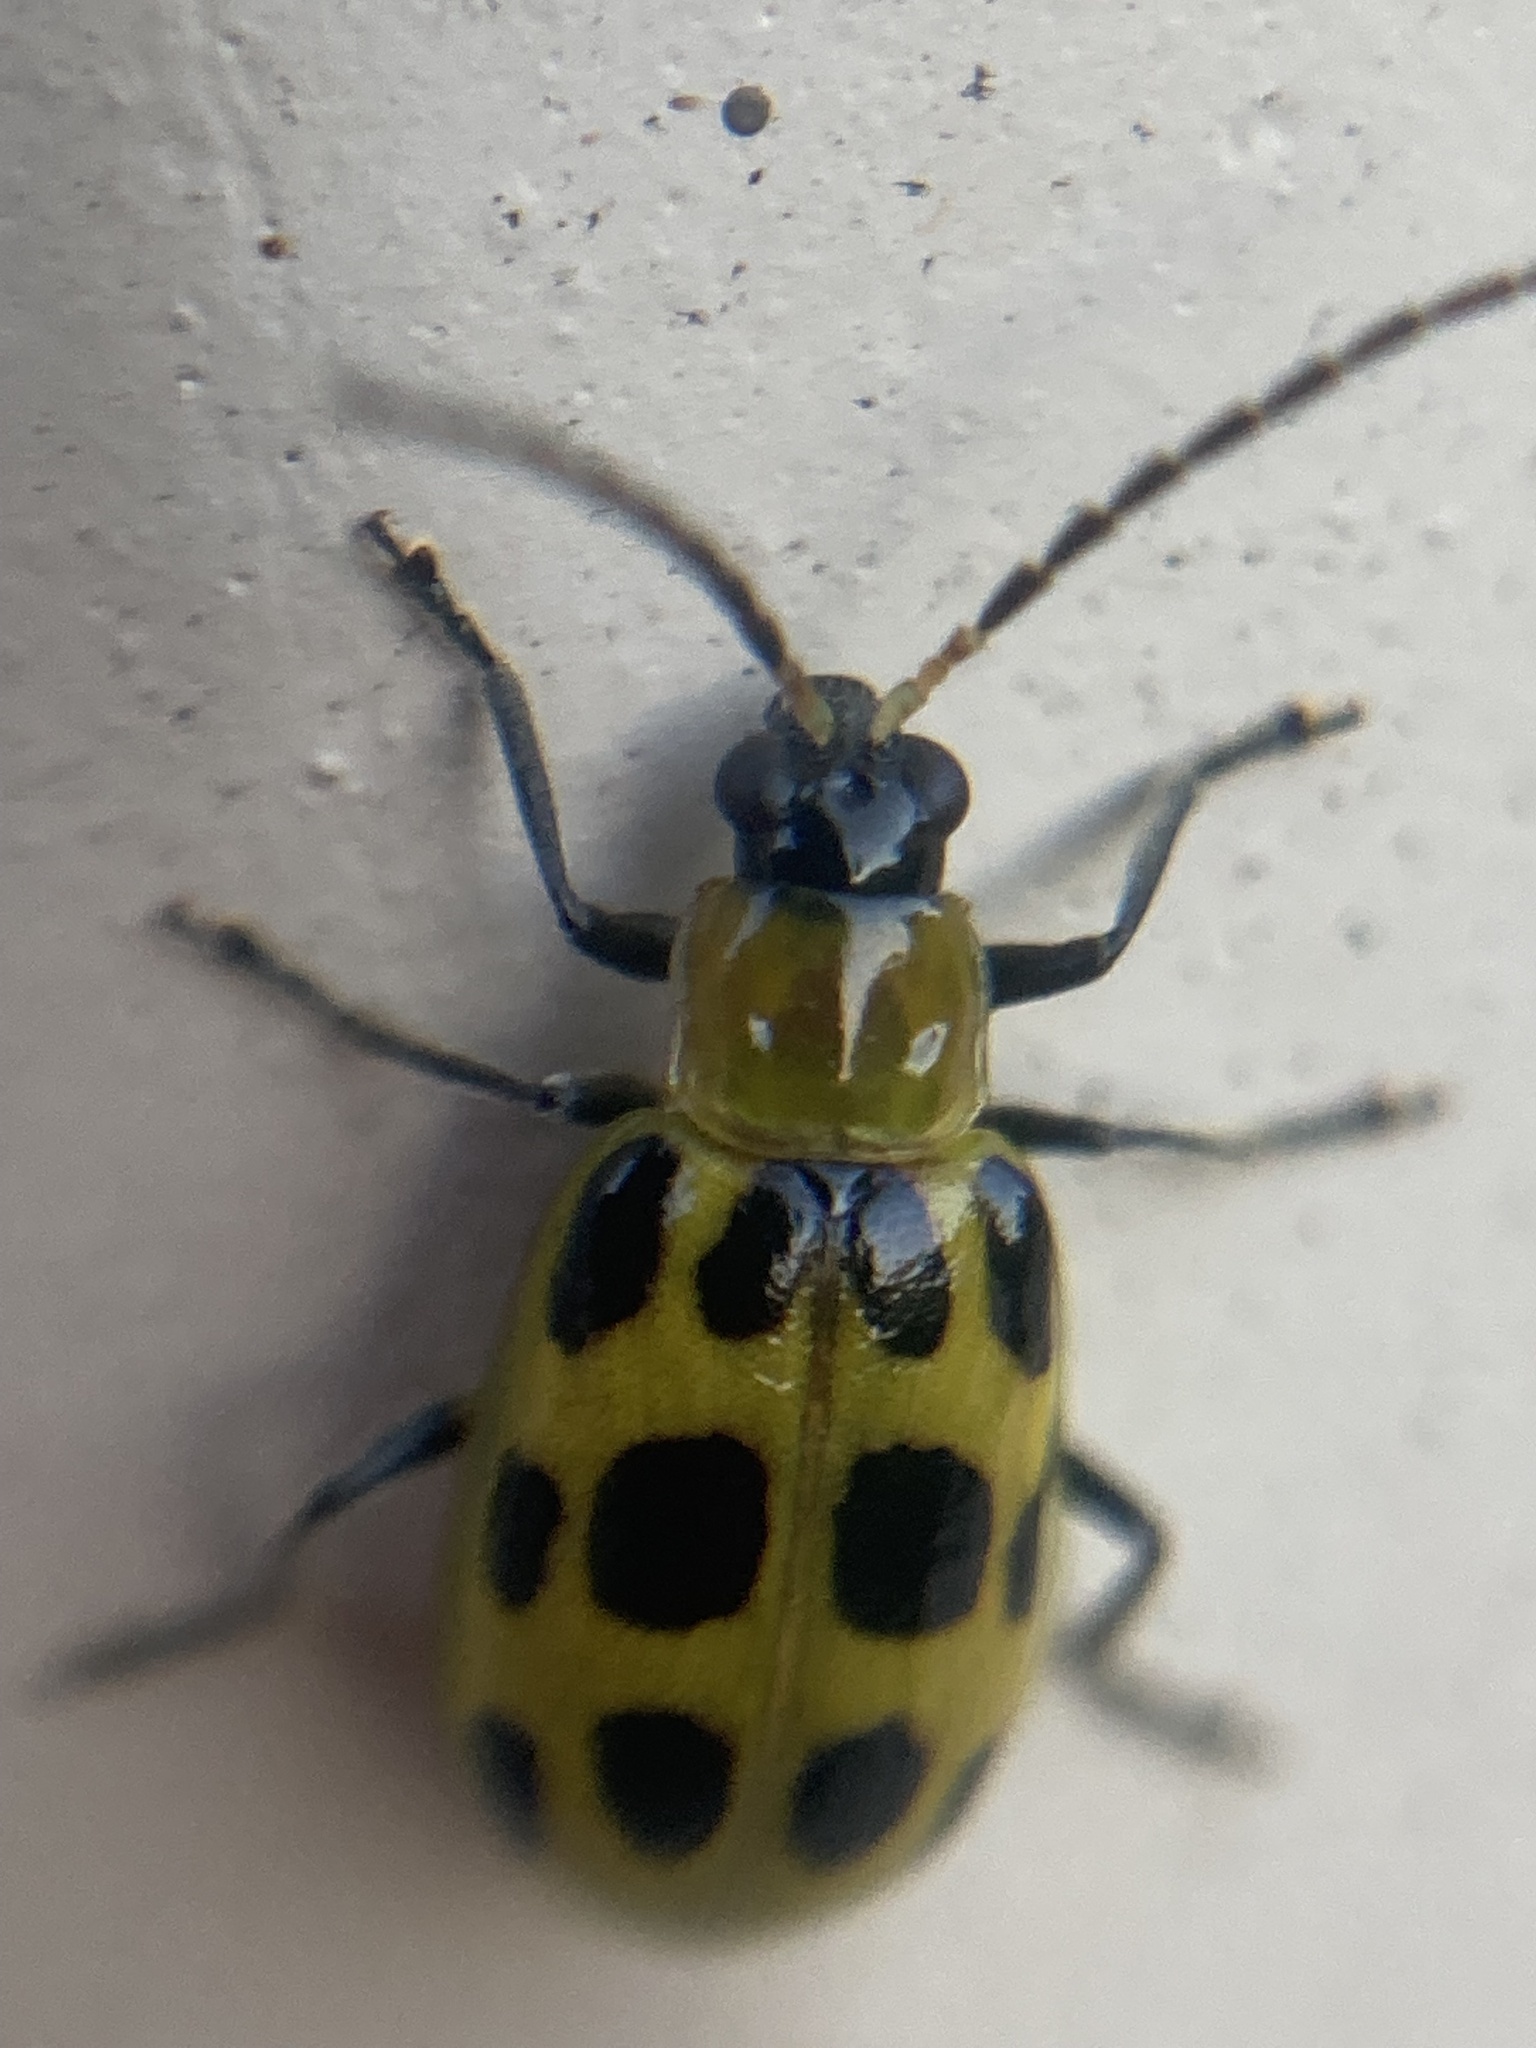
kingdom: Animalia
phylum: Arthropoda
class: Insecta
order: Coleoptera
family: Chrysomelidae
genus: Diabrotica
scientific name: Diabrotica undecimpunctata
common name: Spotted cucumber beetle
